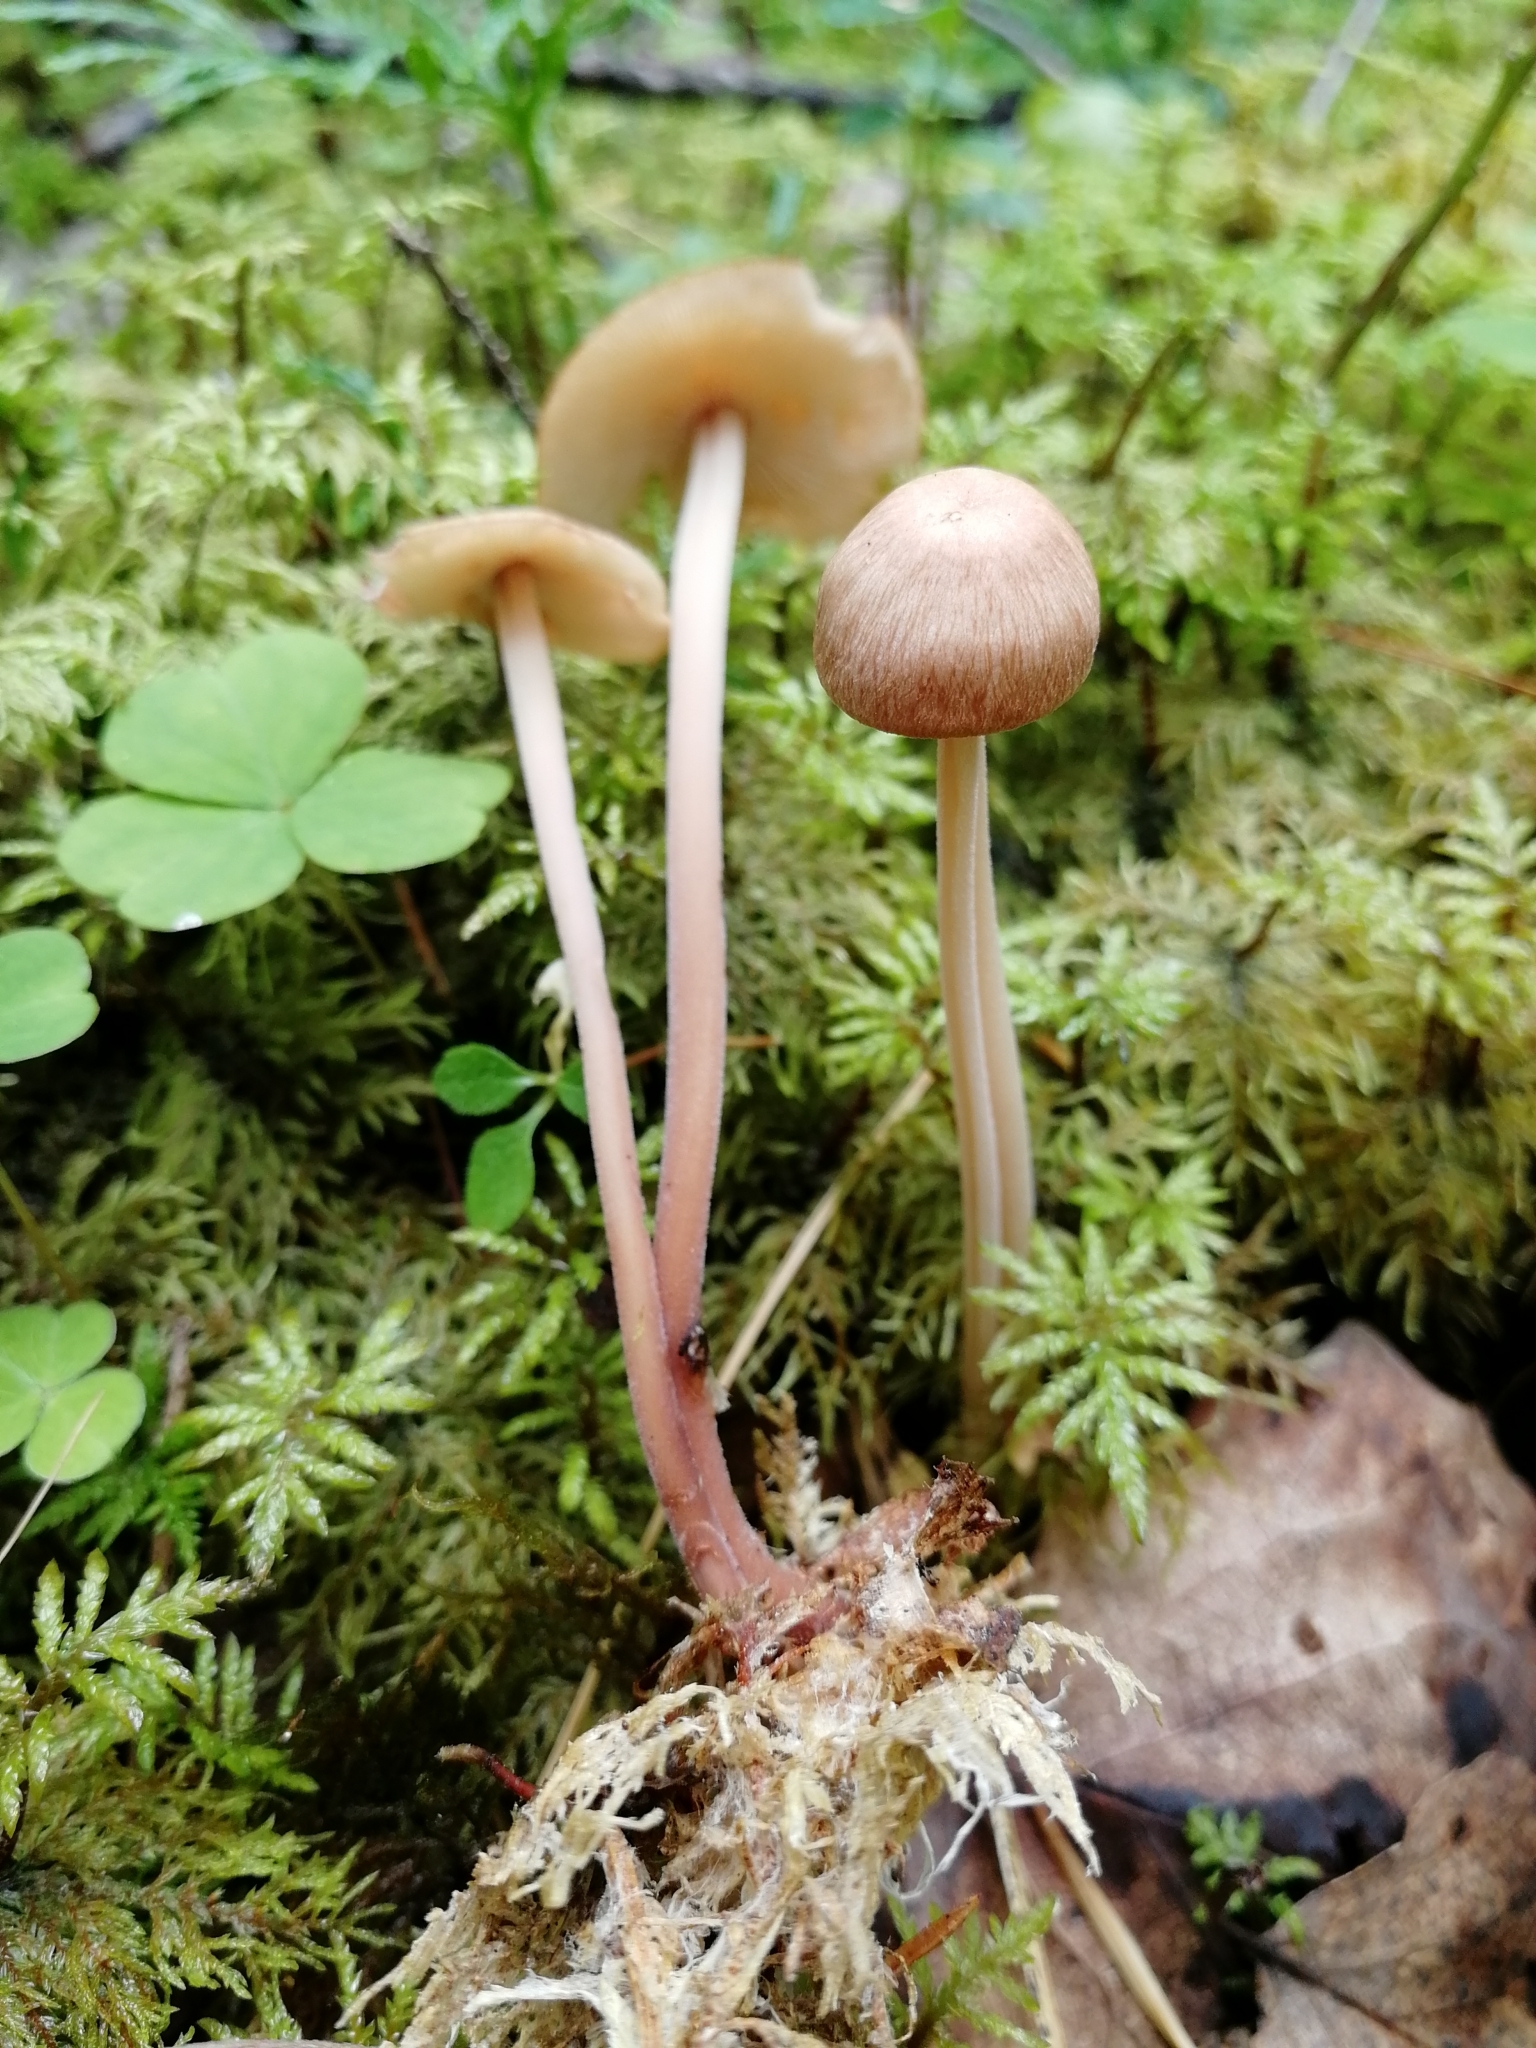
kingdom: Fungi
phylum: Basidiomycota
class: Agaricomycetes
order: Agaricales
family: Omphalotaceae
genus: Collybiopsis
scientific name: Collybiopsis confluens
